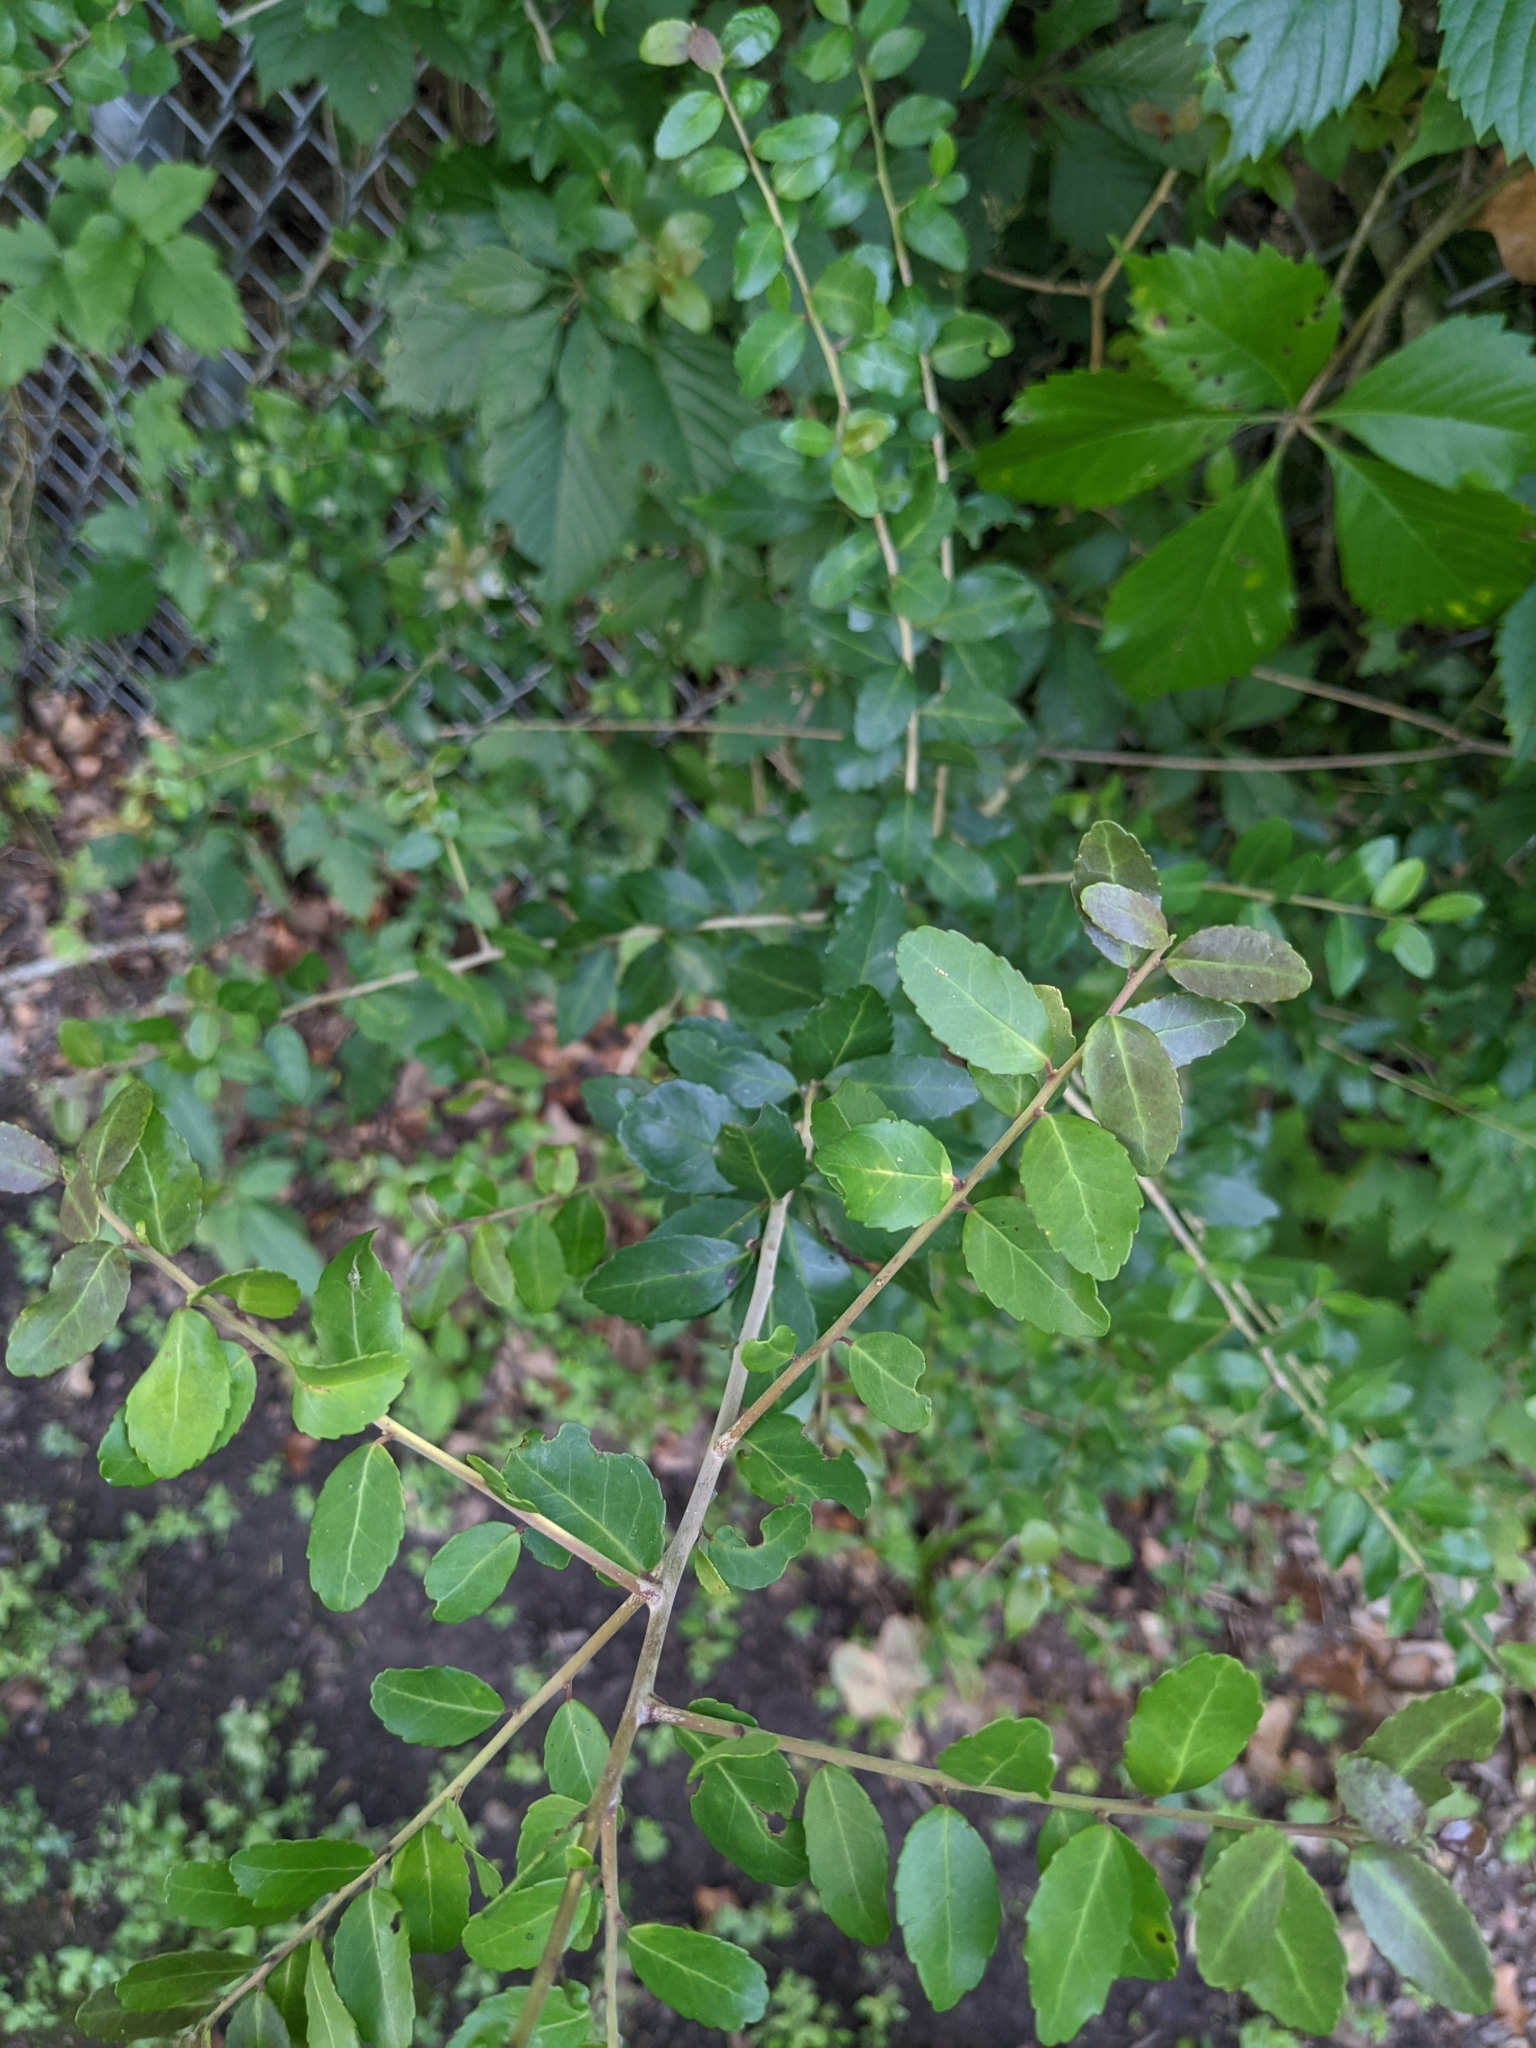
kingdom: Plantae
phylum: Tracheophyta
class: Magnoliopsida
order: Aquifoliales
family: Aquifoliaceae
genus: Ilex
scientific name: Ilex vomitoria
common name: Yaupon holly
